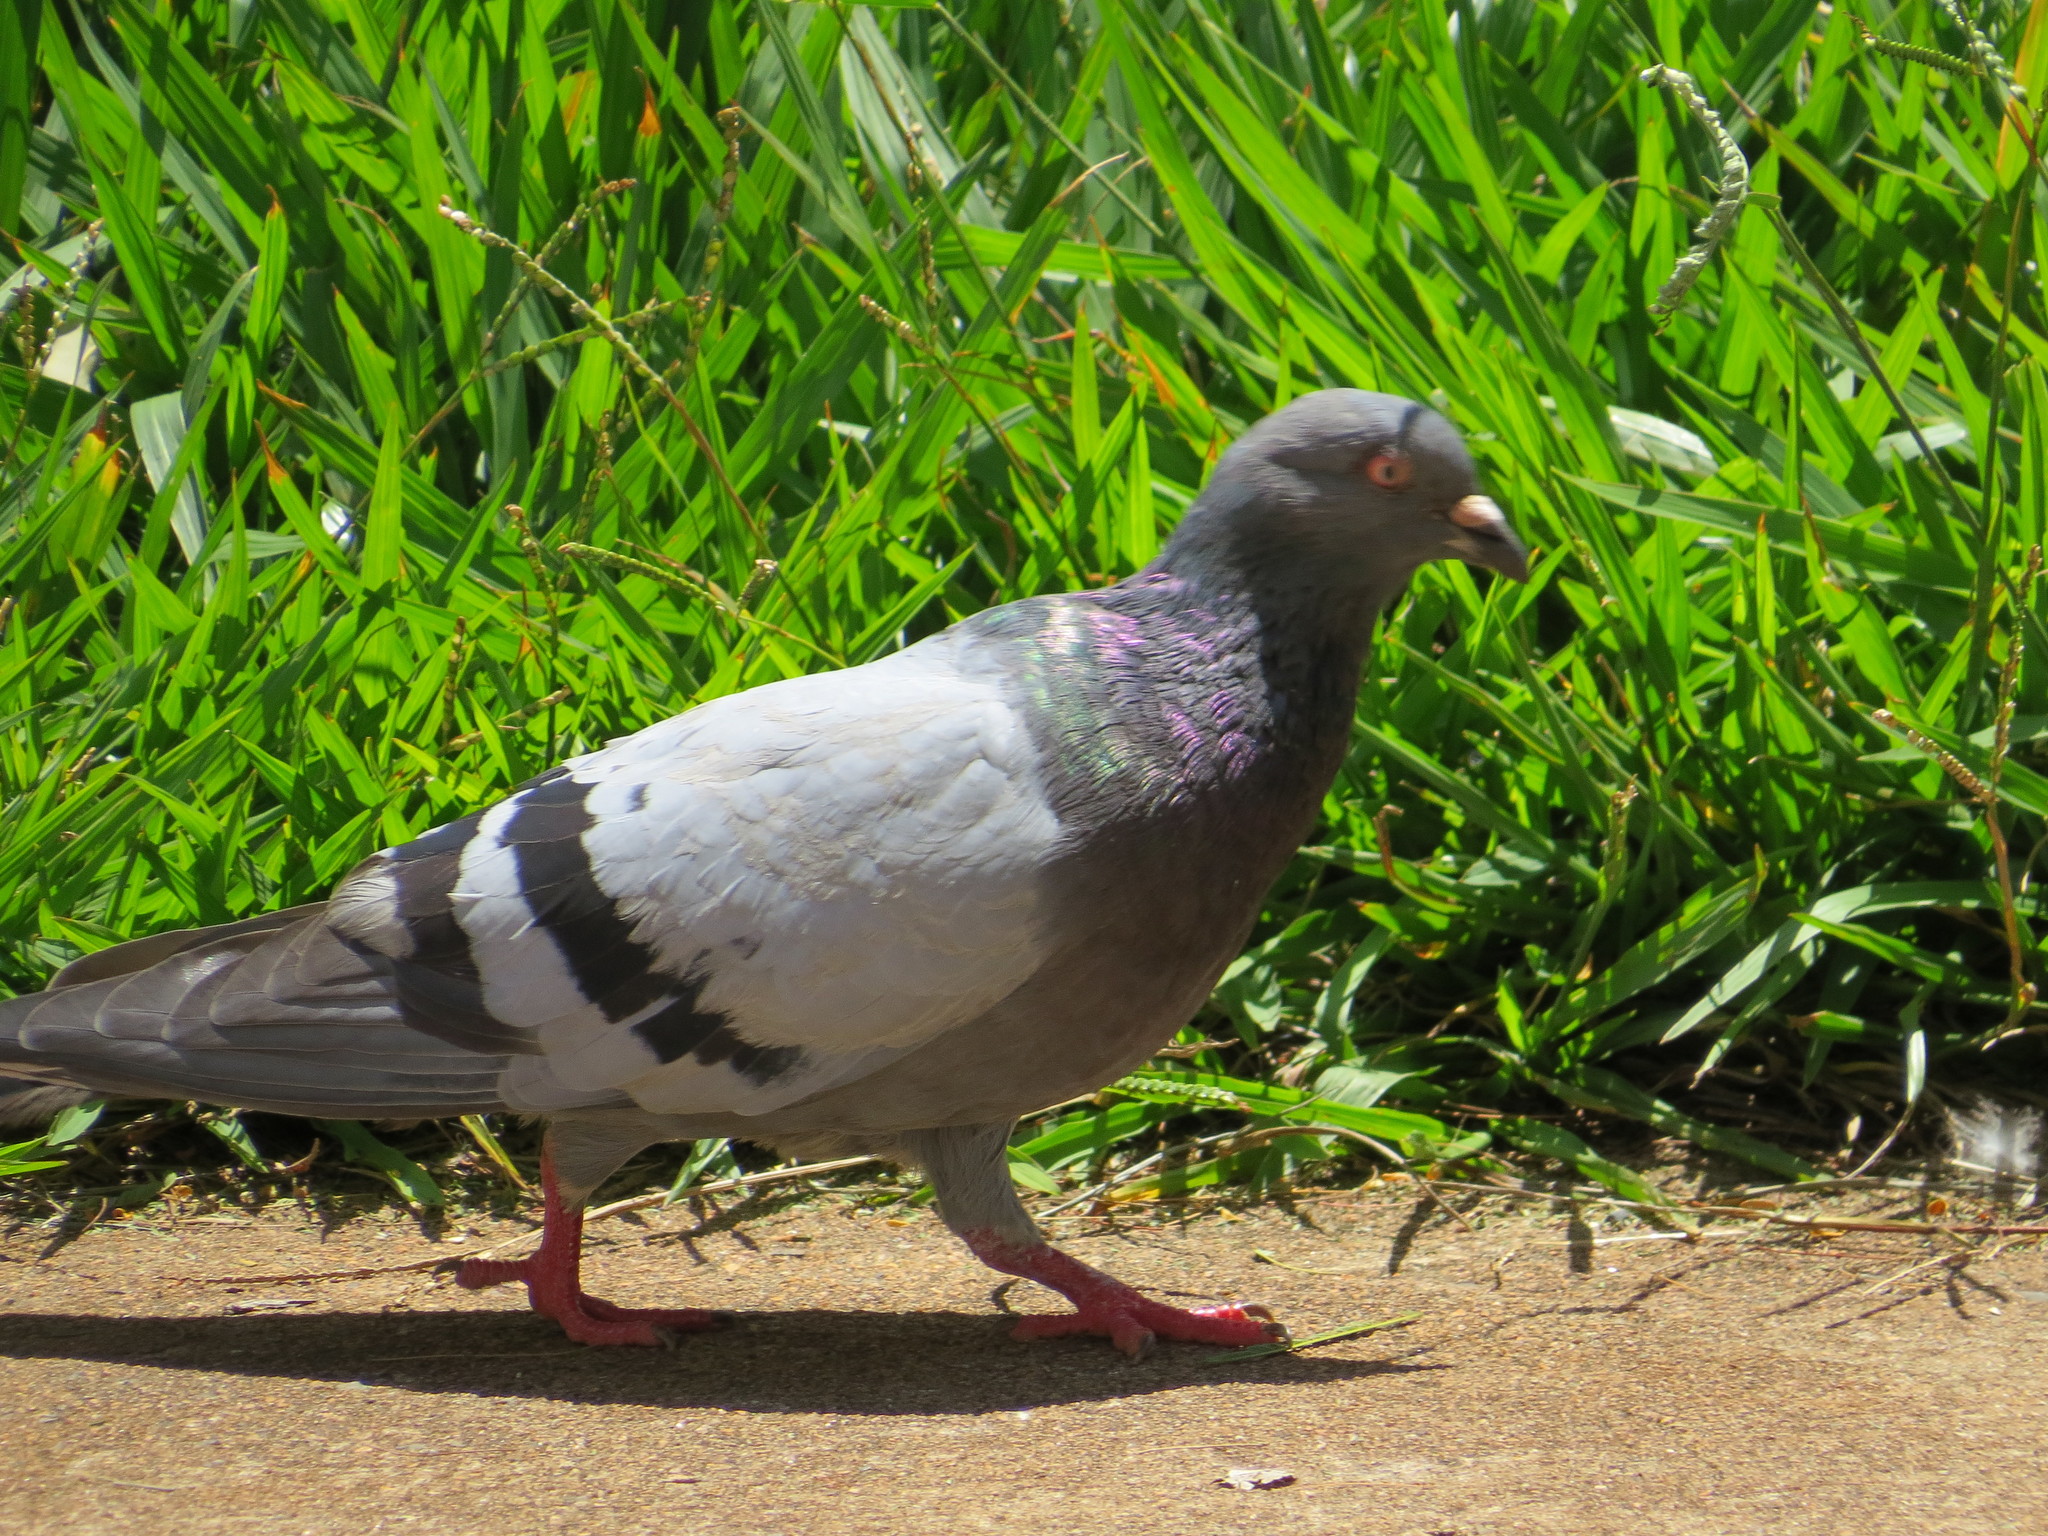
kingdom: Animalia
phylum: Chordata
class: Aves
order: Columbiformes
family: Columbidae
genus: Columba
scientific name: Columba livia
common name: Rock pigeon
